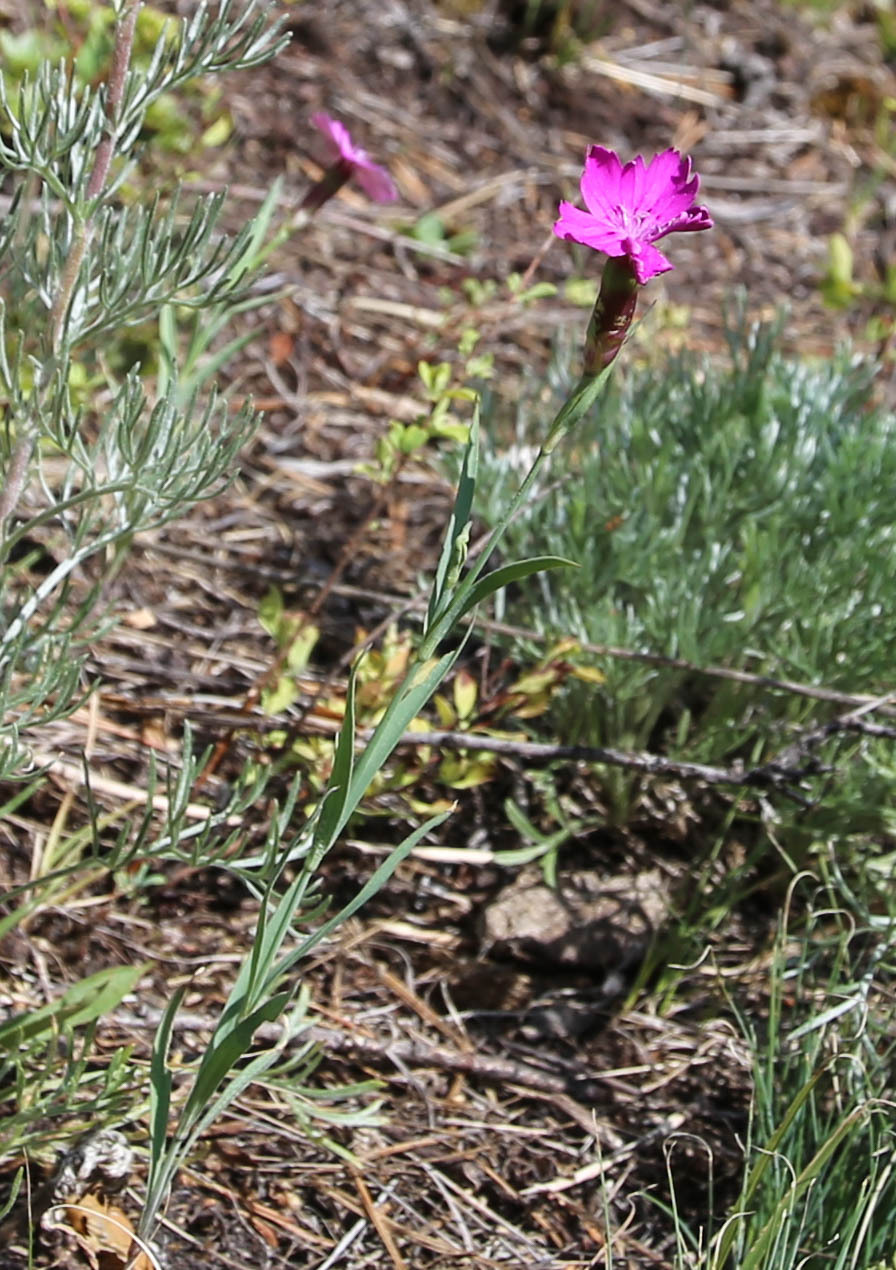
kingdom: Plantae
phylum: Tracheophyta
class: Magnoliopsida
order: Caryophyllales
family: Caryophyllaceae
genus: Dianthus
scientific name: Dianthus chinensis
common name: Rainbow pink
